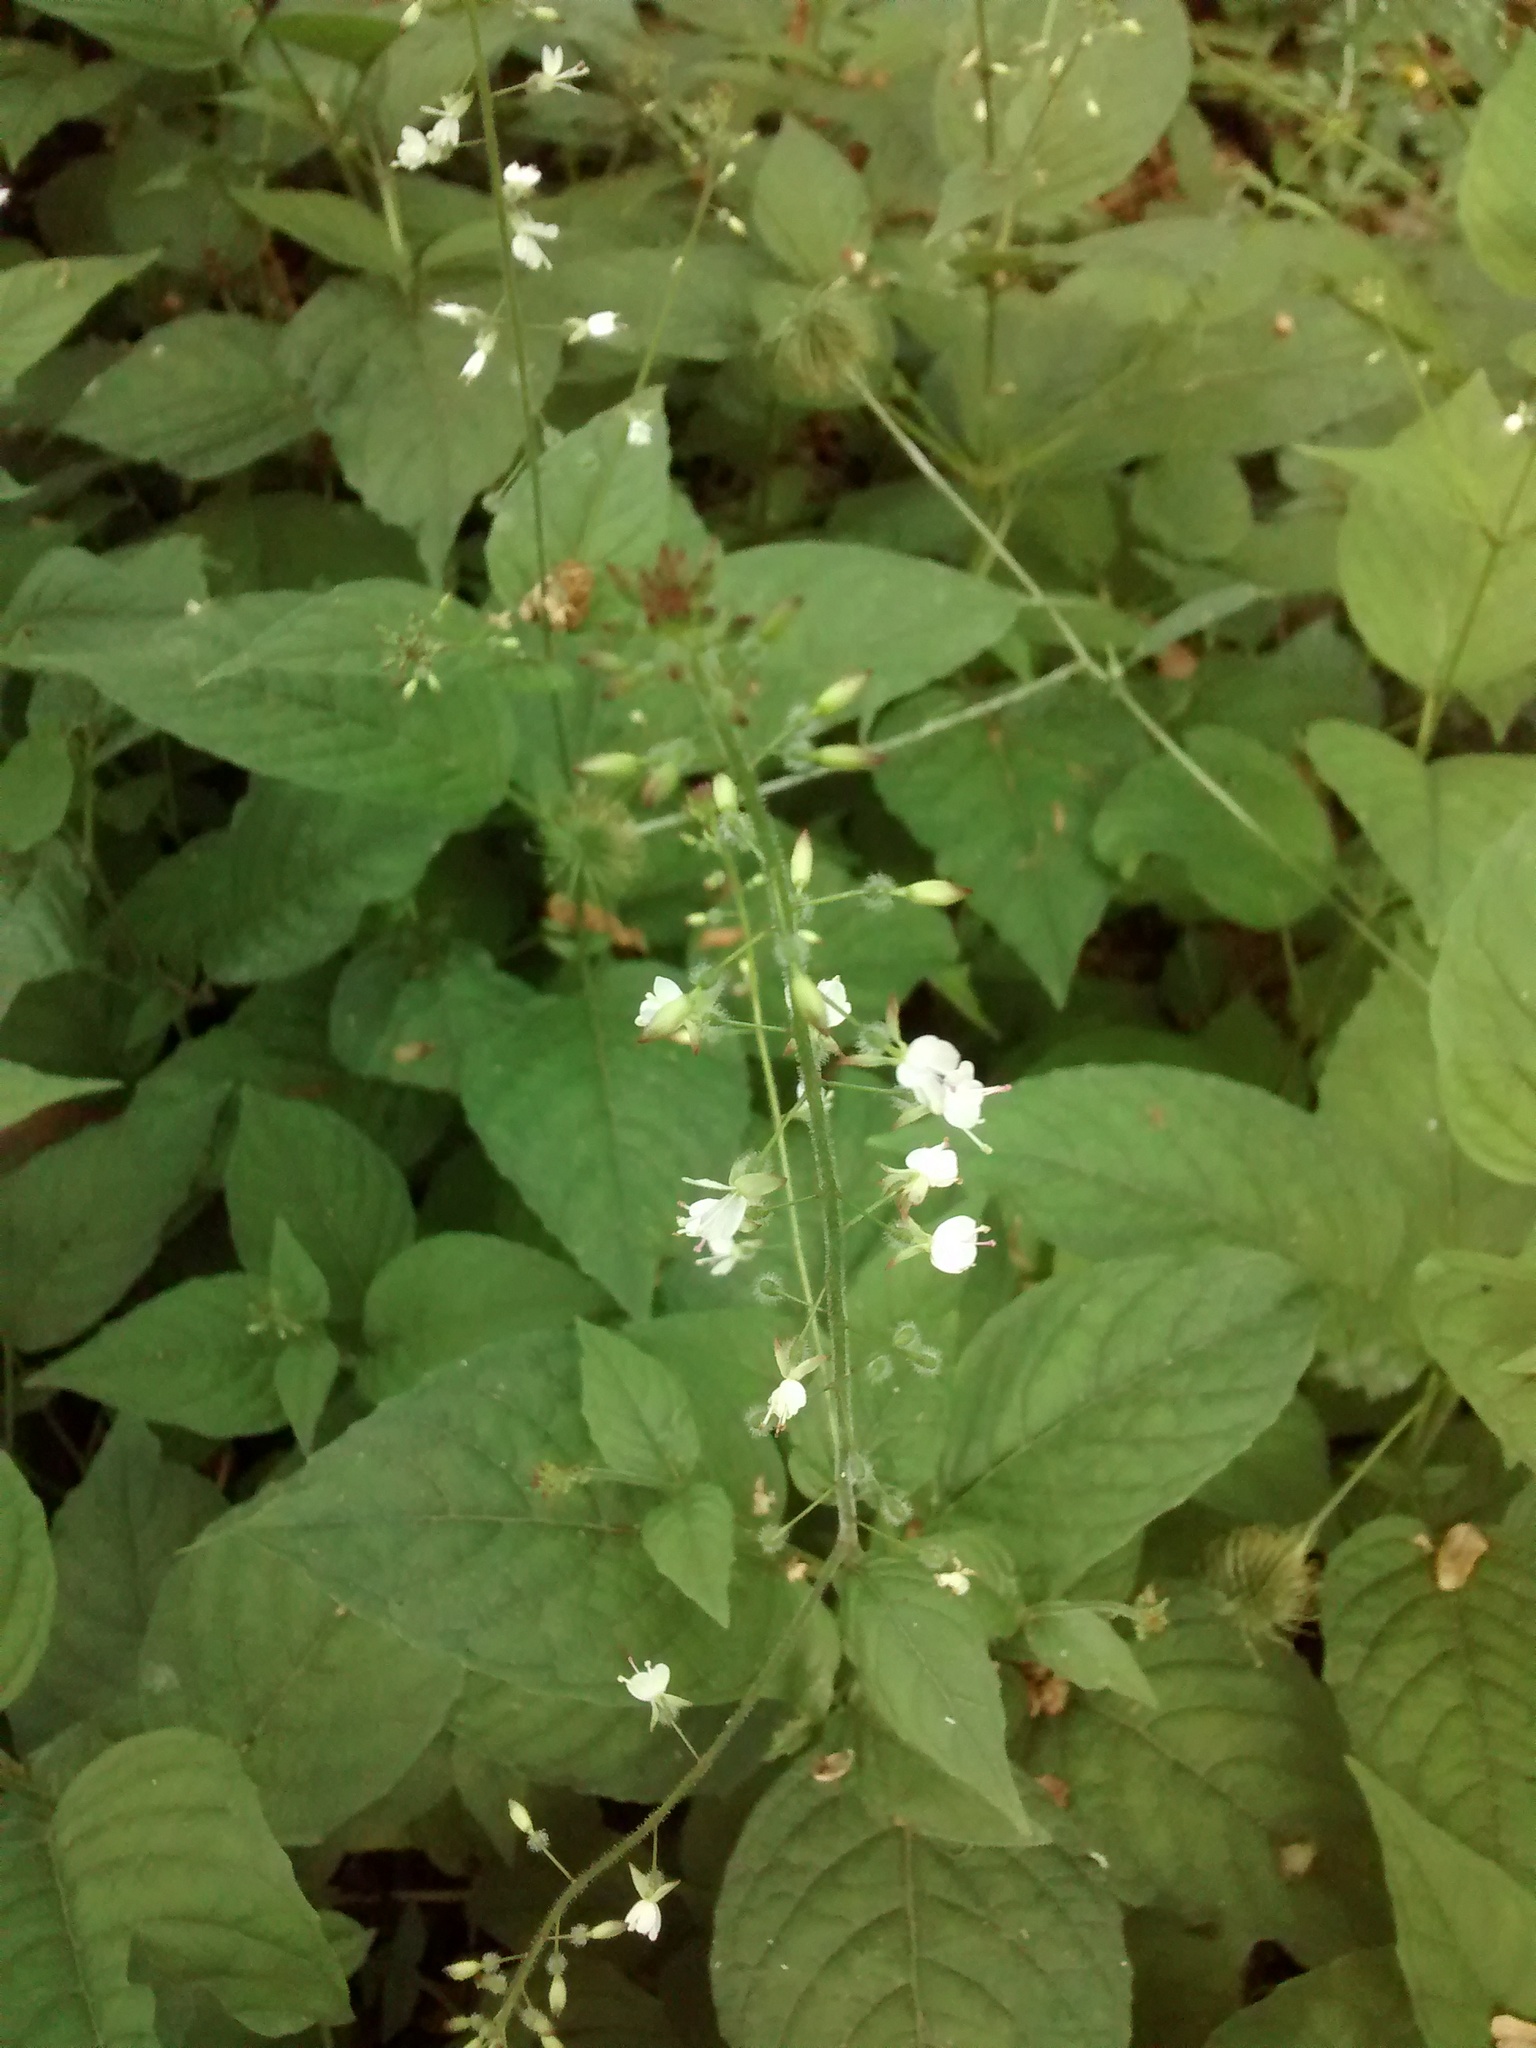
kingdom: Plantae
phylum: Tracheophyta
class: Magnoliopsida
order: Myrtales
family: Onagraceae
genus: Circaea
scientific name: Circaea lutetiana
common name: Enchanter's-nightshade
